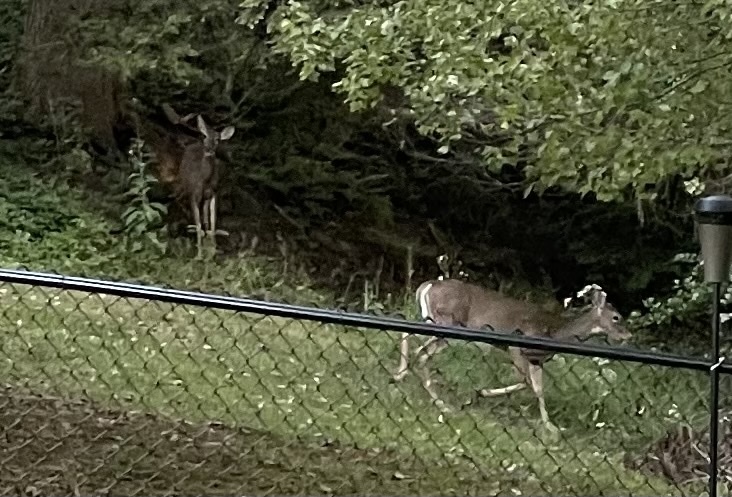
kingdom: Animalia
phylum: Chordata
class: Mammalia
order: Artiodactyla
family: Cervidae
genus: Odocoileus
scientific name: Odocoileus virginianus
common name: White-tailed deer
